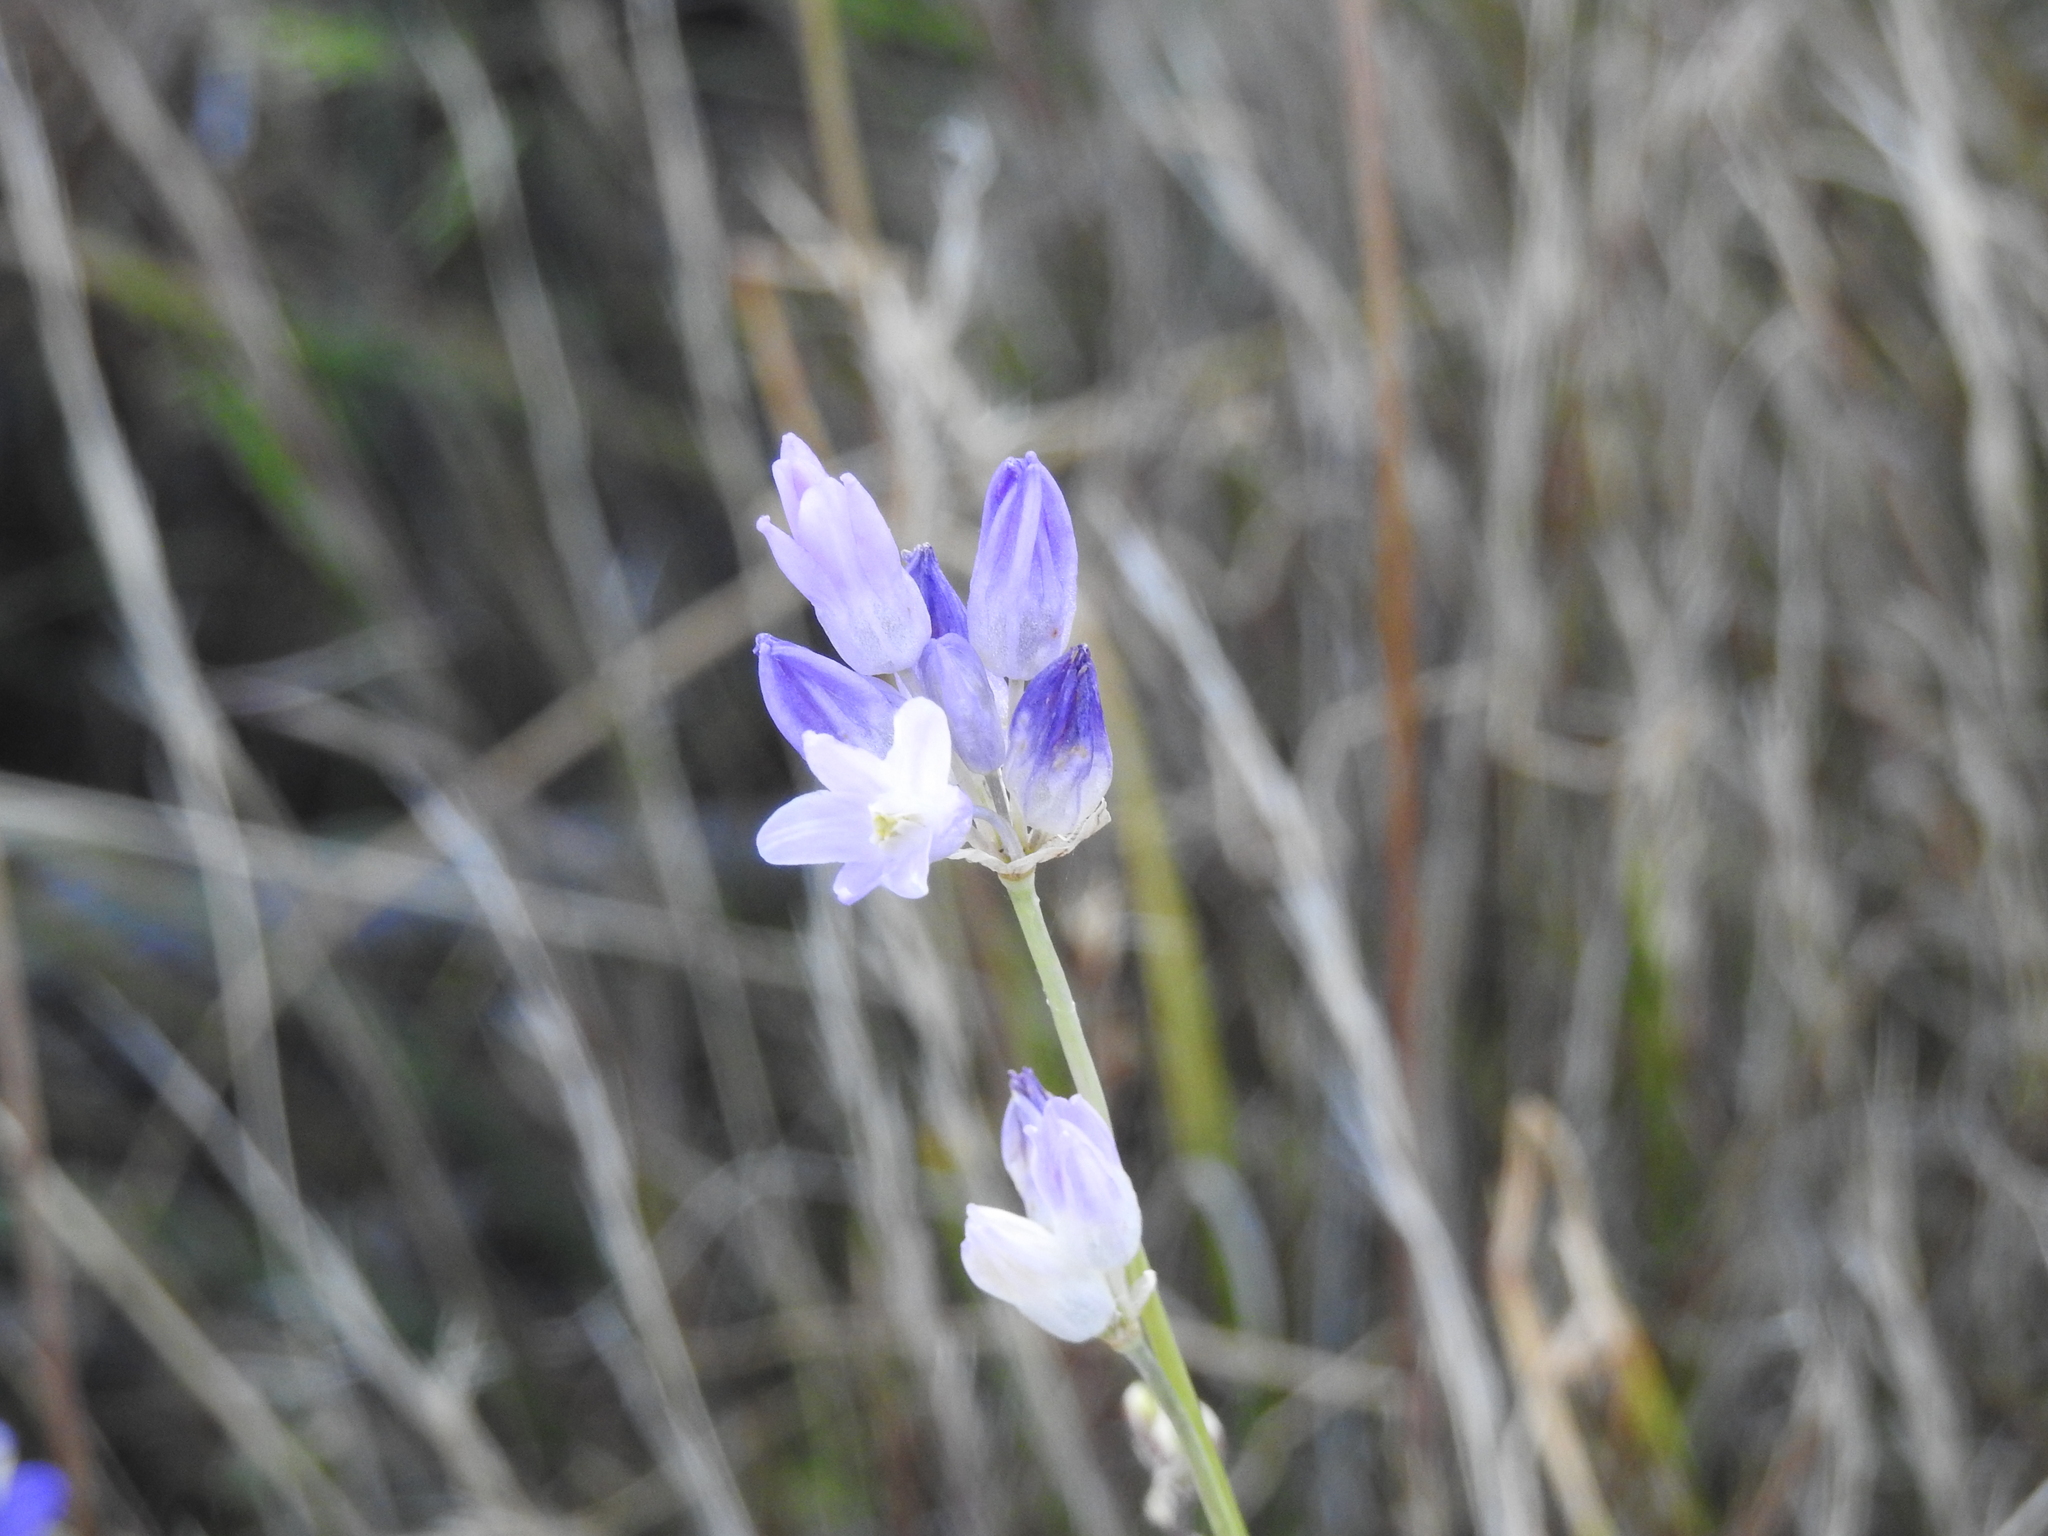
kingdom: Plantae
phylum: Tracheophyta
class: Liliopsida
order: Asparagales
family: Asparagaceae
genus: Dipterostemon
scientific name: Dipterostemon capitatus
